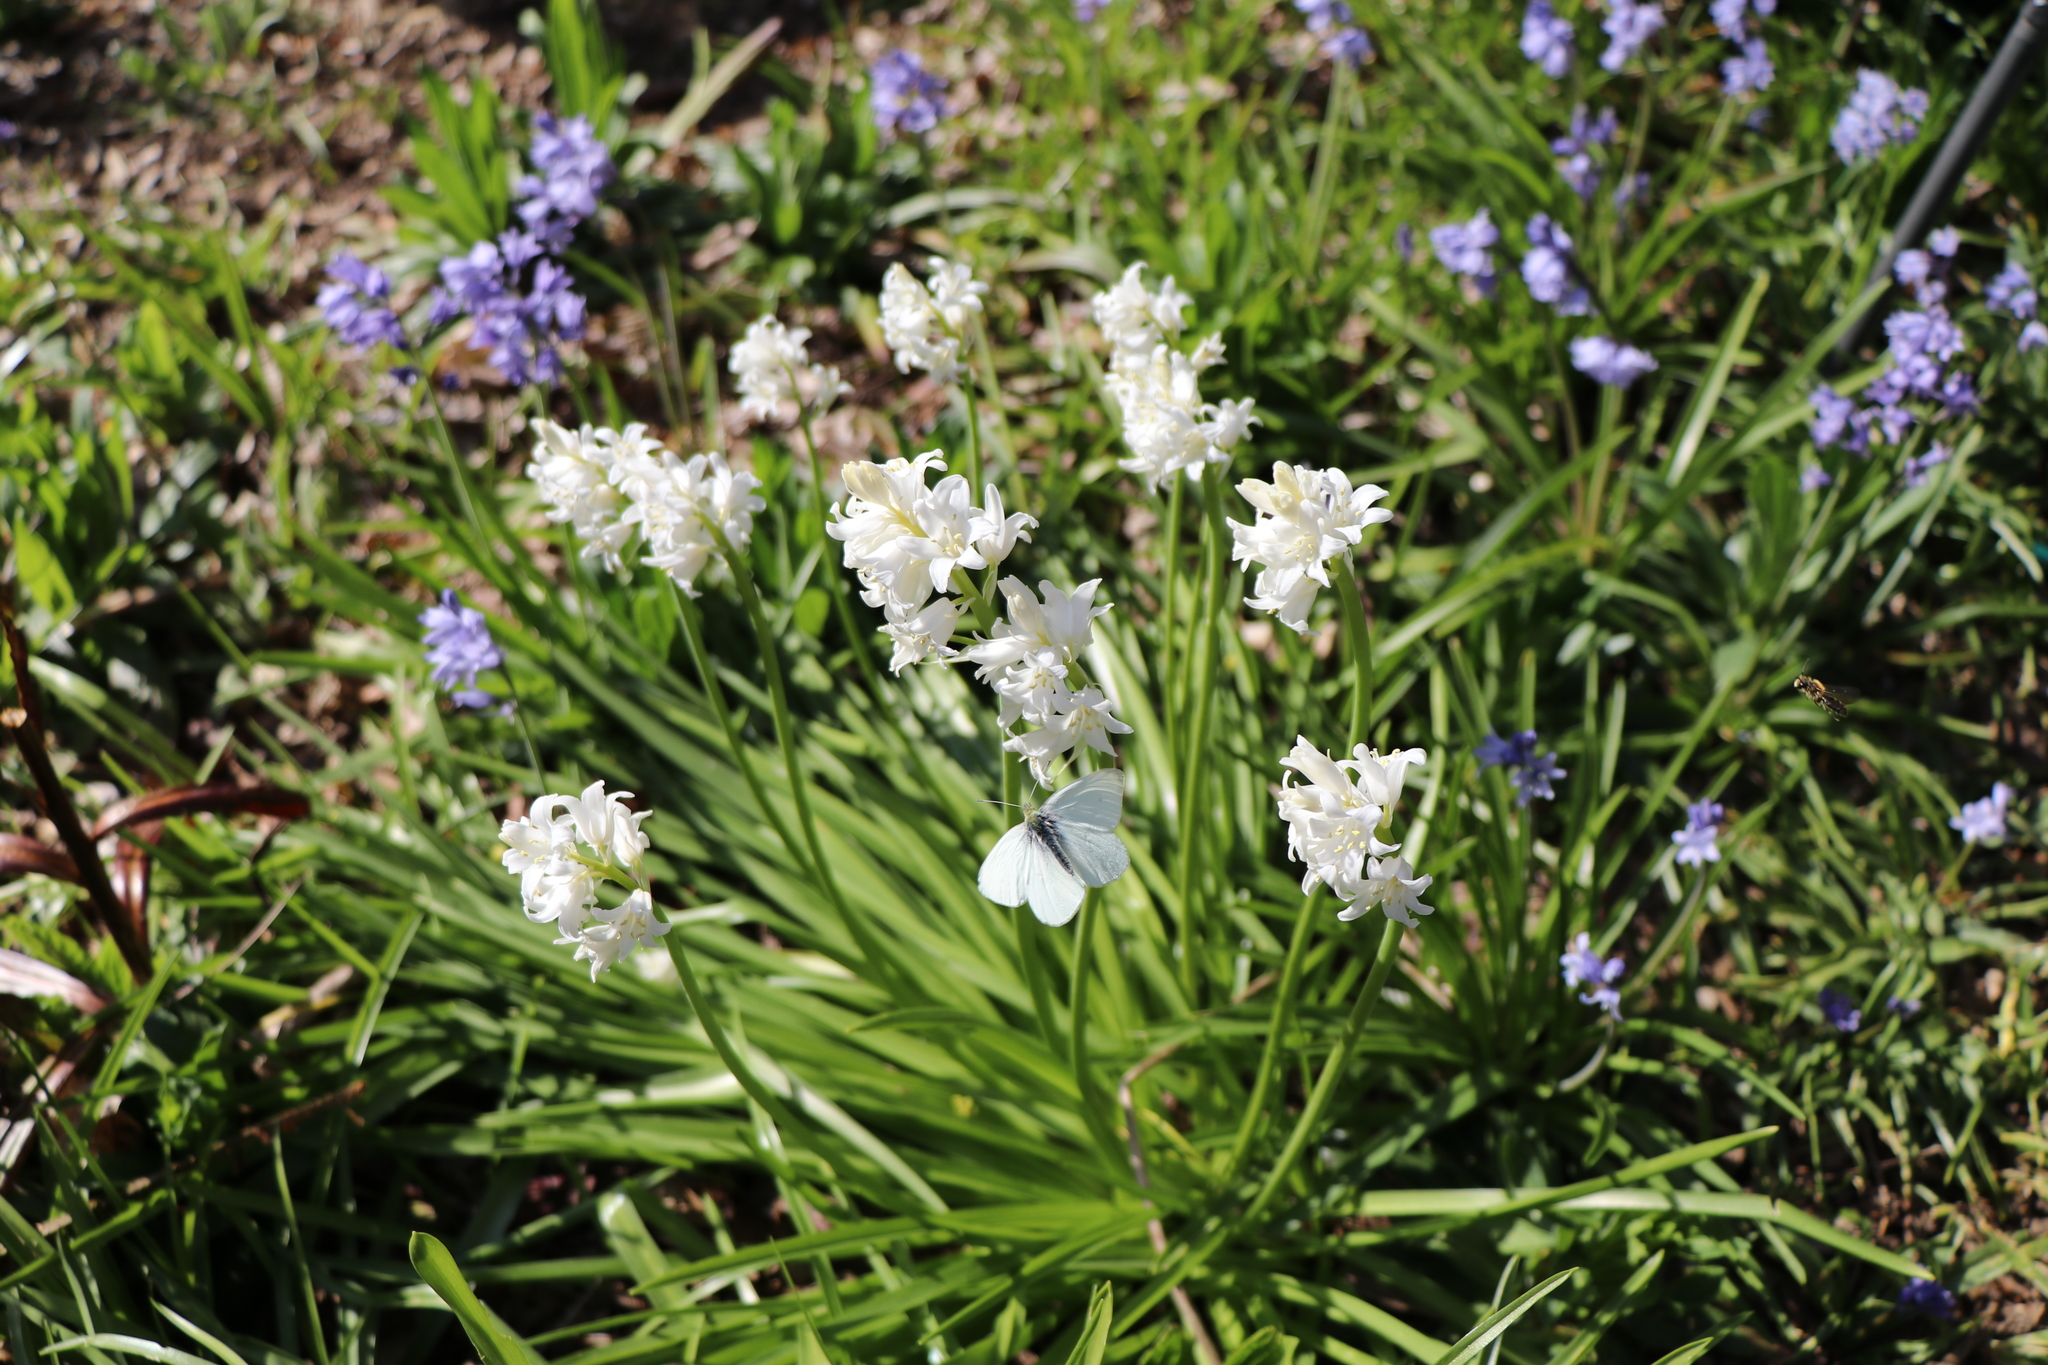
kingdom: Animalia
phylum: Arthropoda
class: Insecta
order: Lepidoptera
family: Pieridae
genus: Pieris
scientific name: Pieris rapae
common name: Small white
